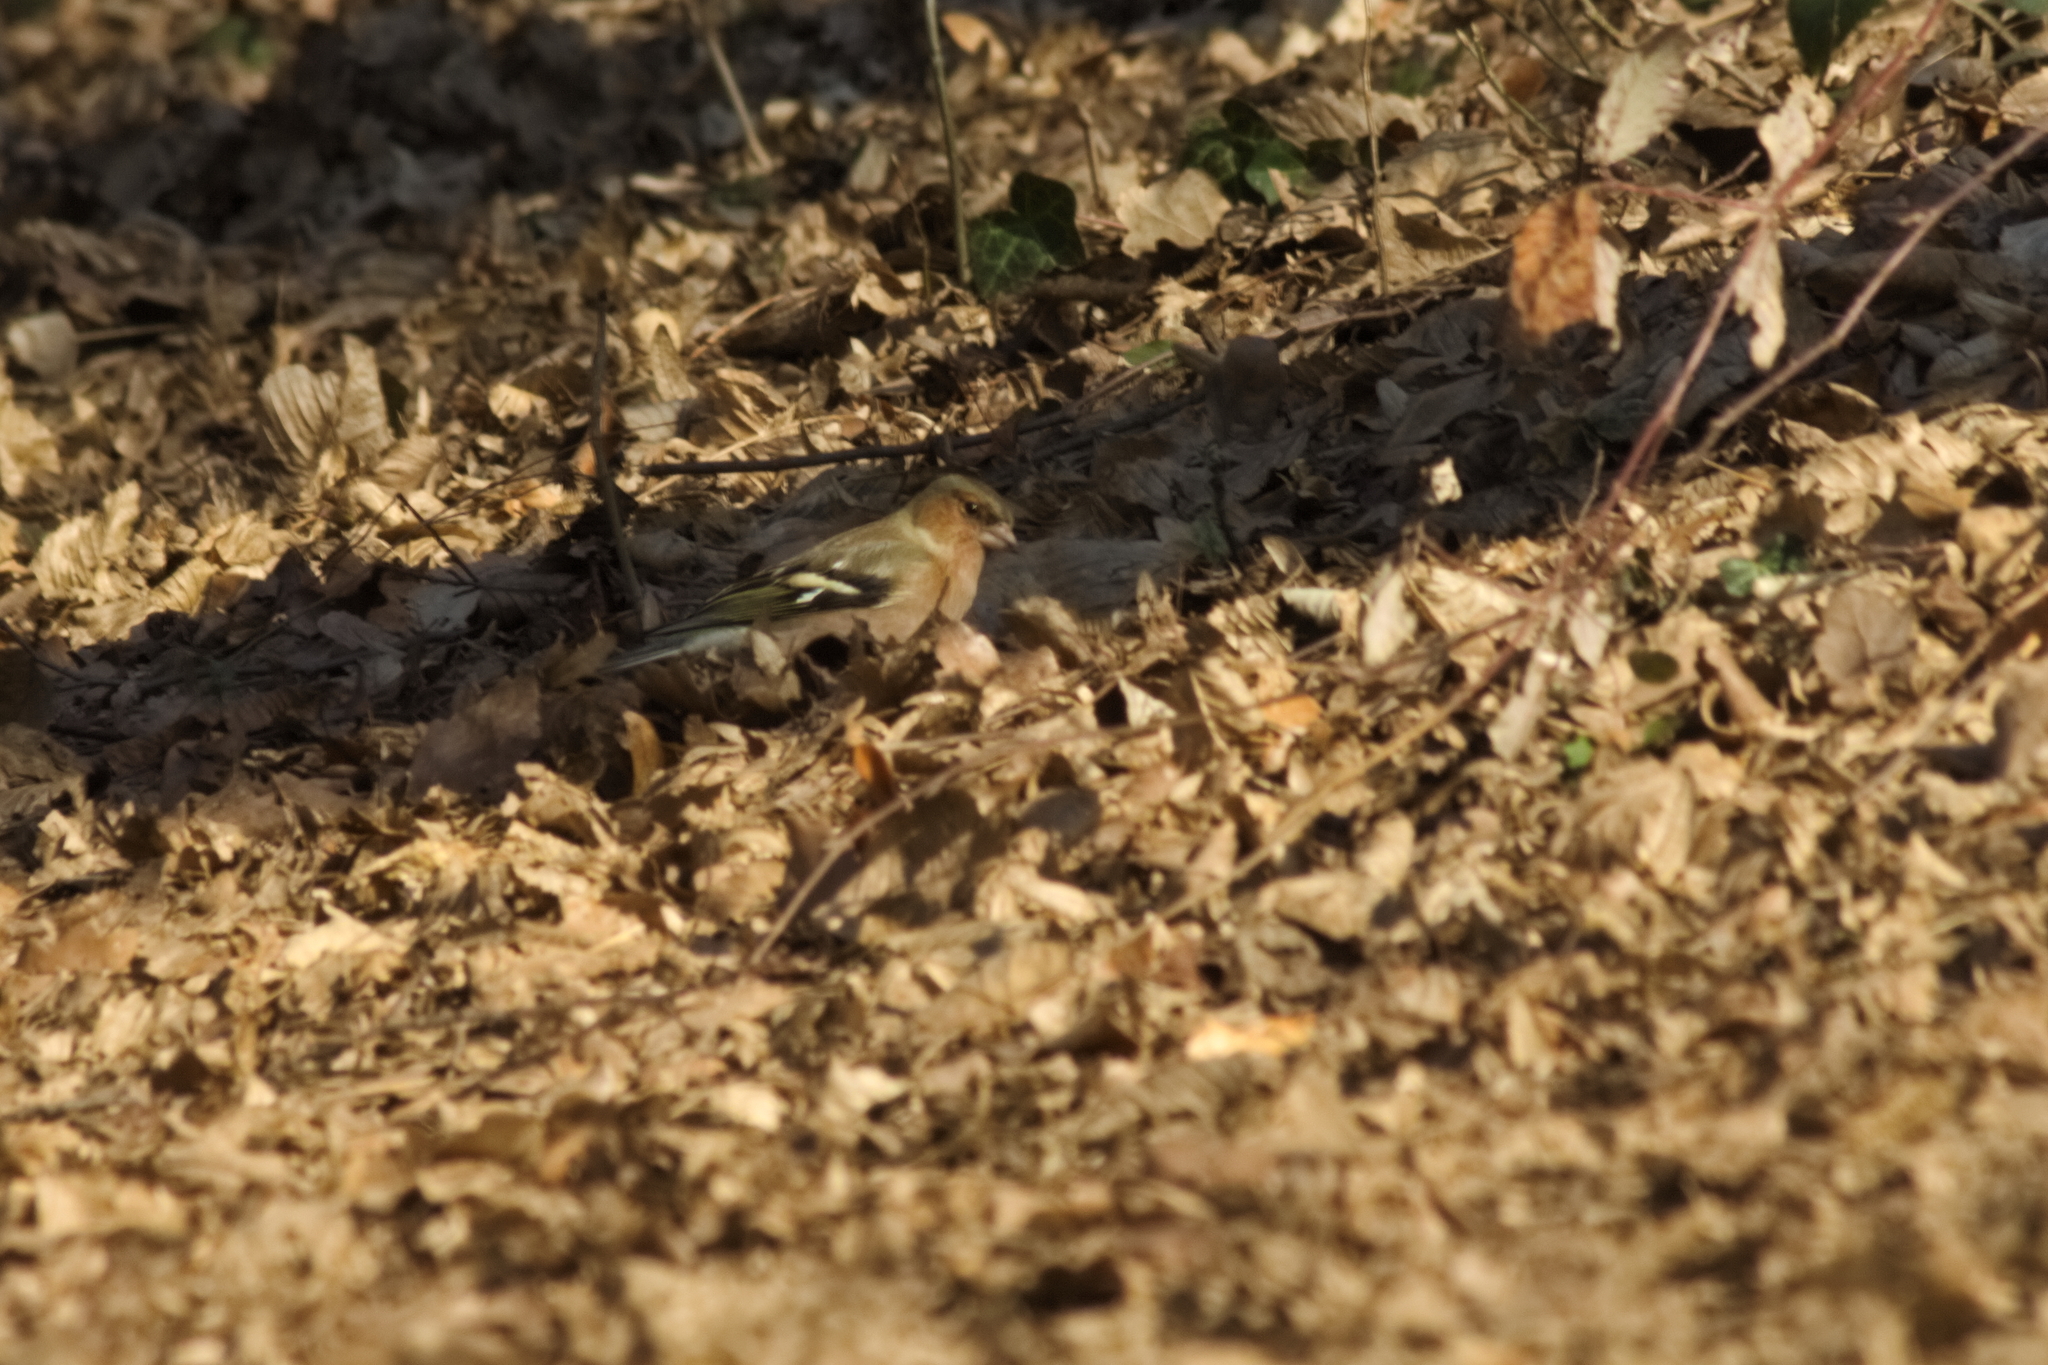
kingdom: Animalia
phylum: Chordata
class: Aves
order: Passeriformes
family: Fringillidae
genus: Fringilla
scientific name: Fringilla coelebs
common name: Common chaffinch
